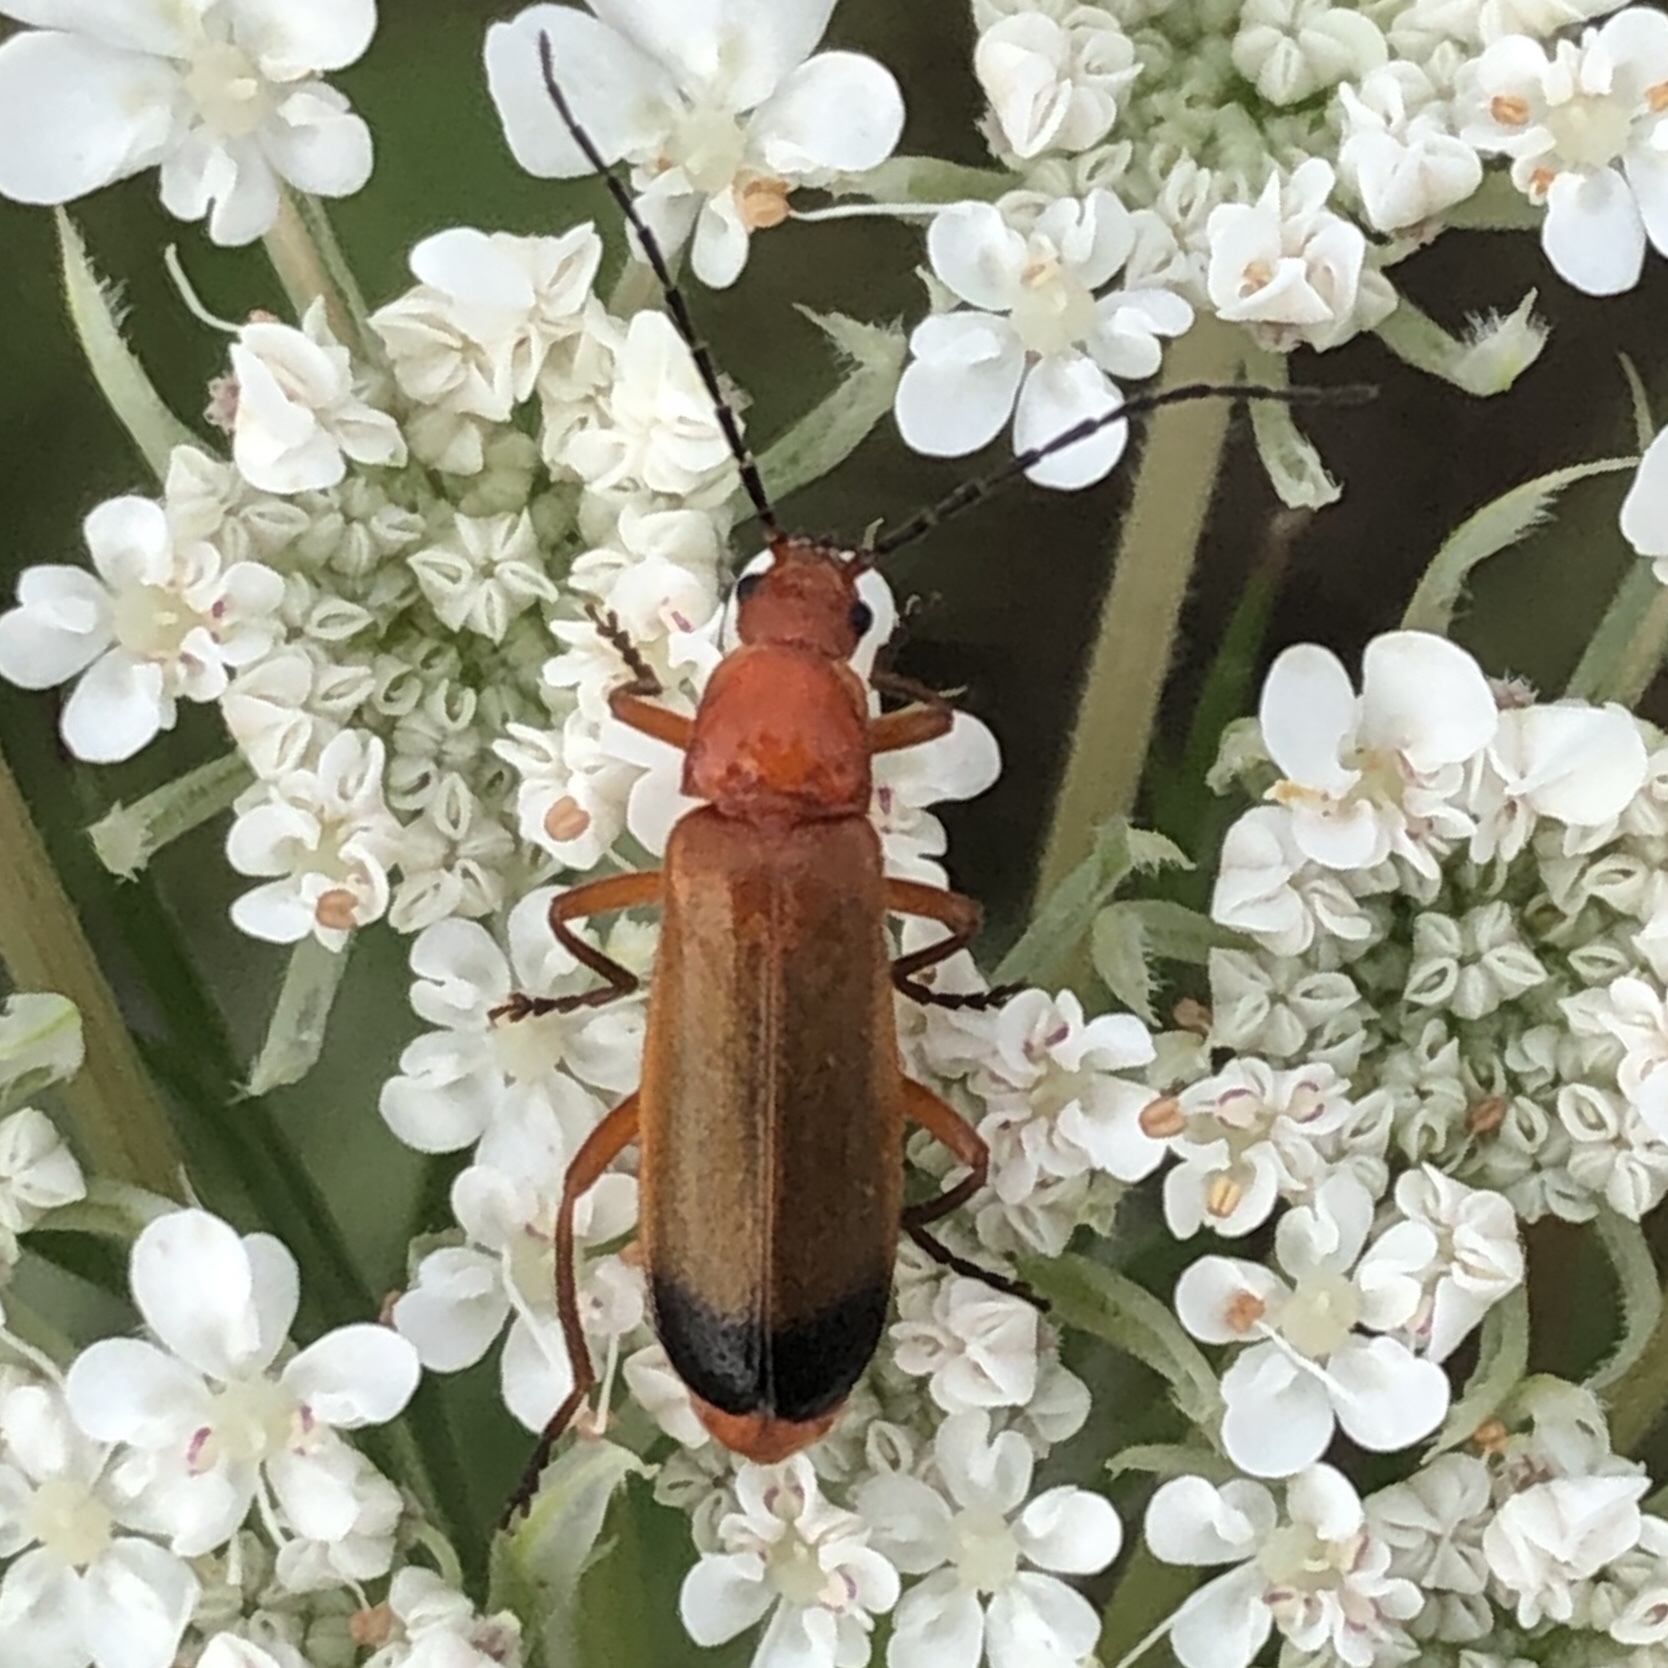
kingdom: Animalia
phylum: Arthropoda
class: Insecta
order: Coleoptera
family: Cantharidae
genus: Rhagonycha
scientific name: Rhagonycha fulva
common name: Common red soldier beetle
